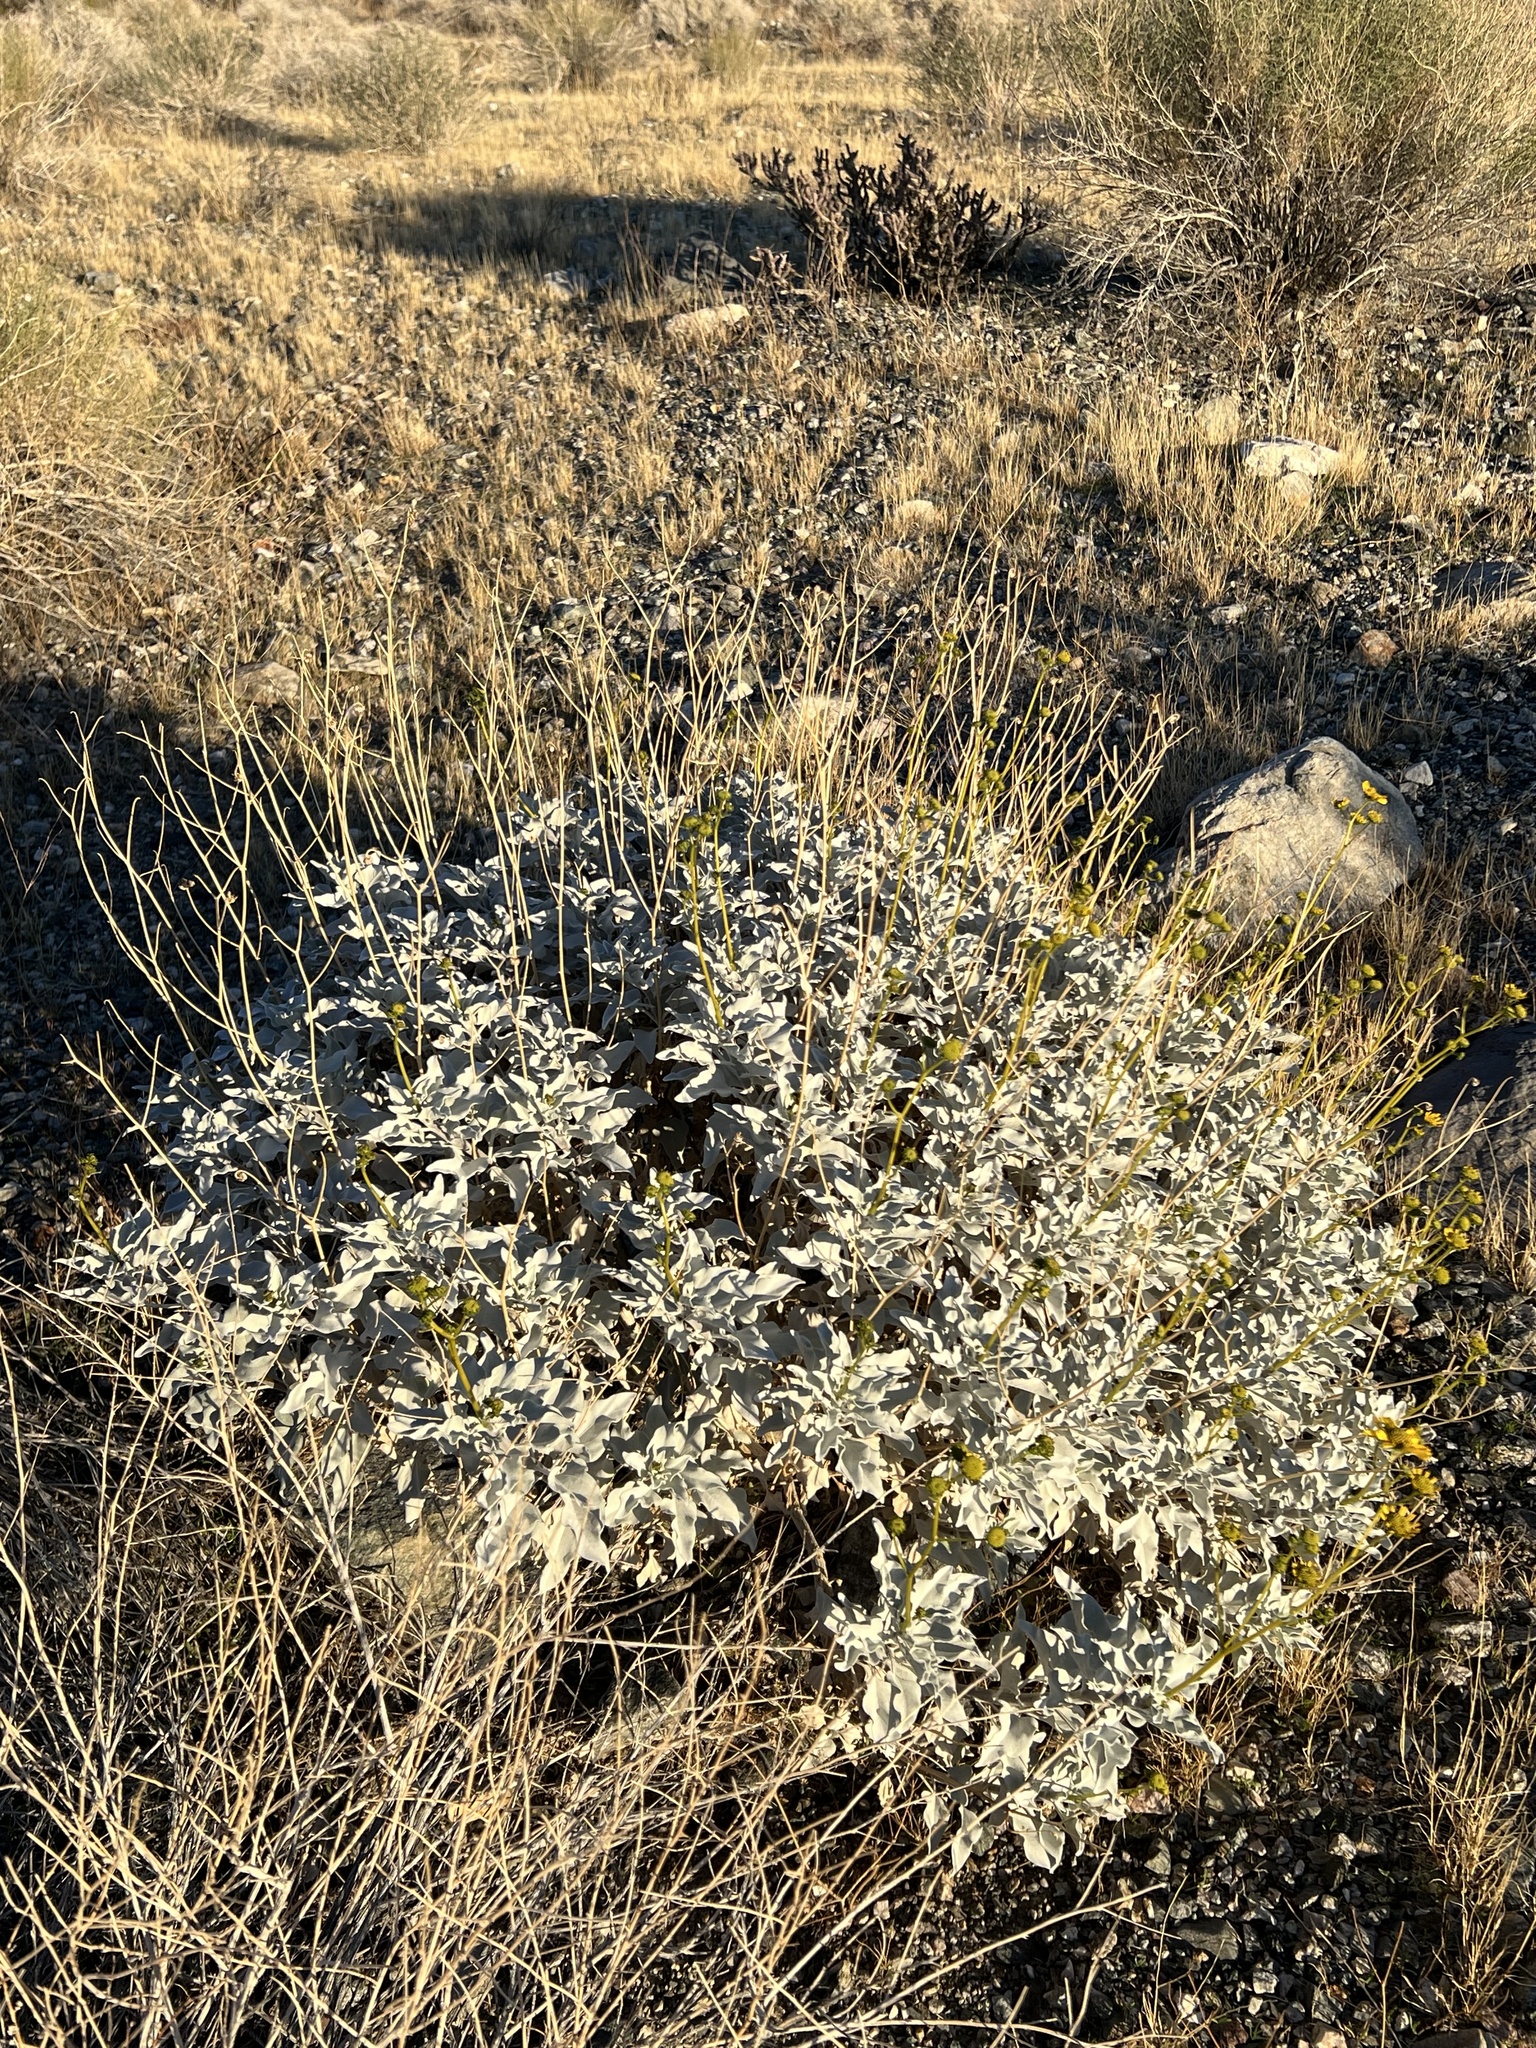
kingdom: Plantae
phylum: Tracheophyta
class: Magnoliopsida
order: Asterales
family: Asteraceae
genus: Encelia
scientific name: Encelia farinosa
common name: Brittlebush
